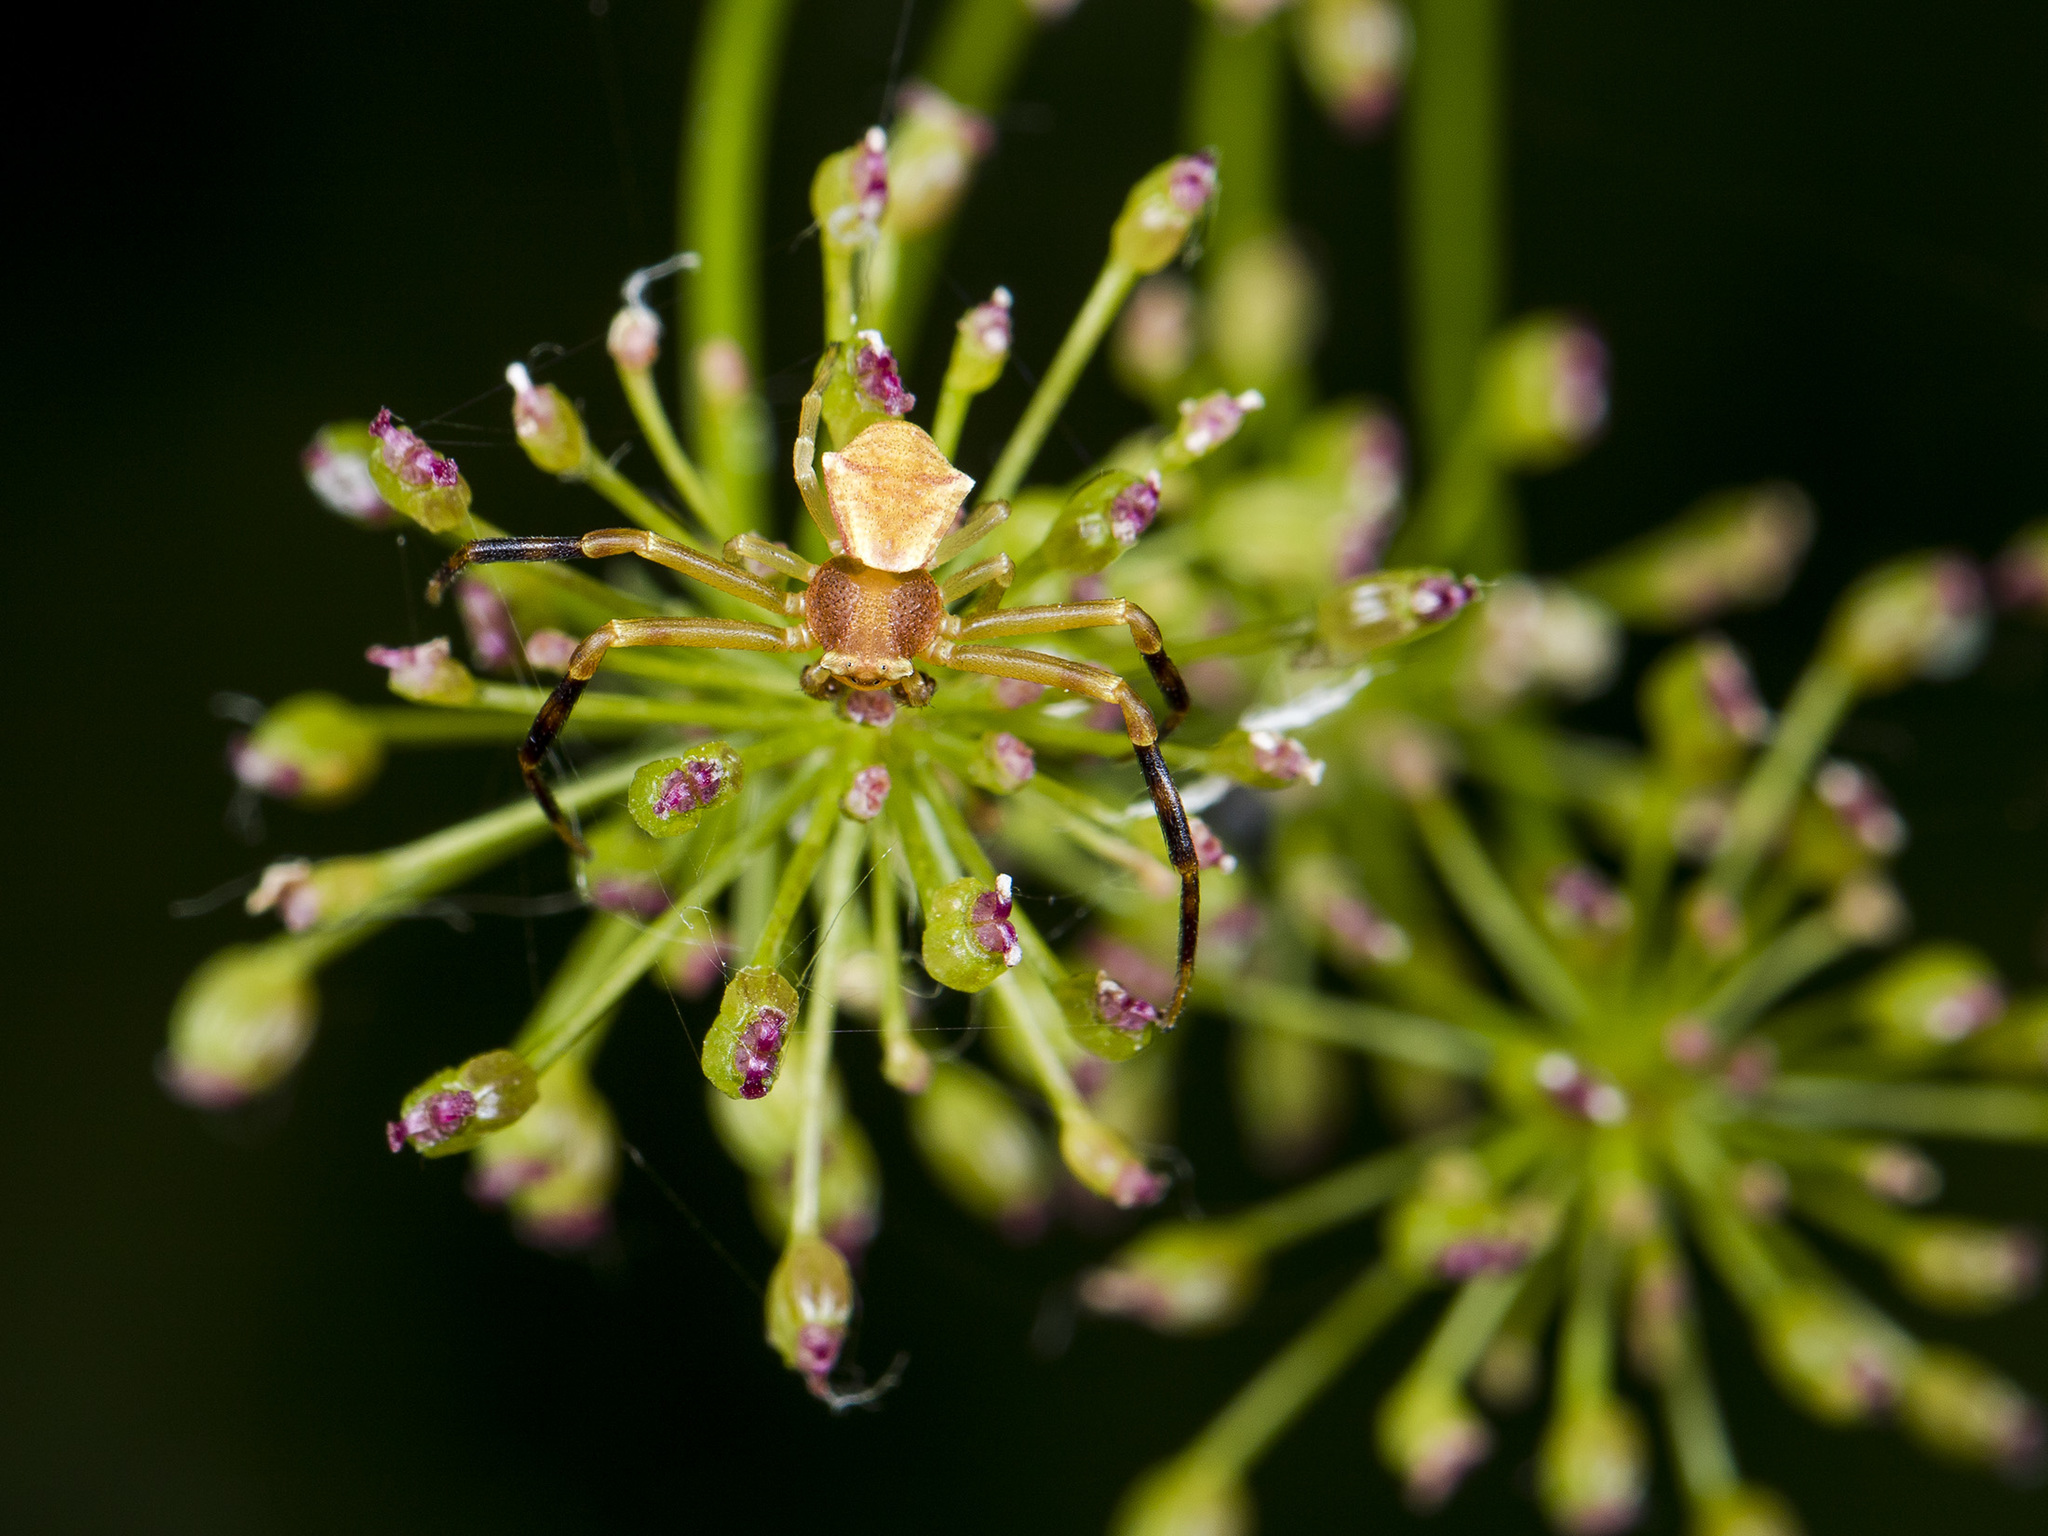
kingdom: Animalia
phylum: Arthropoda
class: Arachnida
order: Araneae
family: Thomisidae
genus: Thomisus
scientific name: Thomisus onustus
